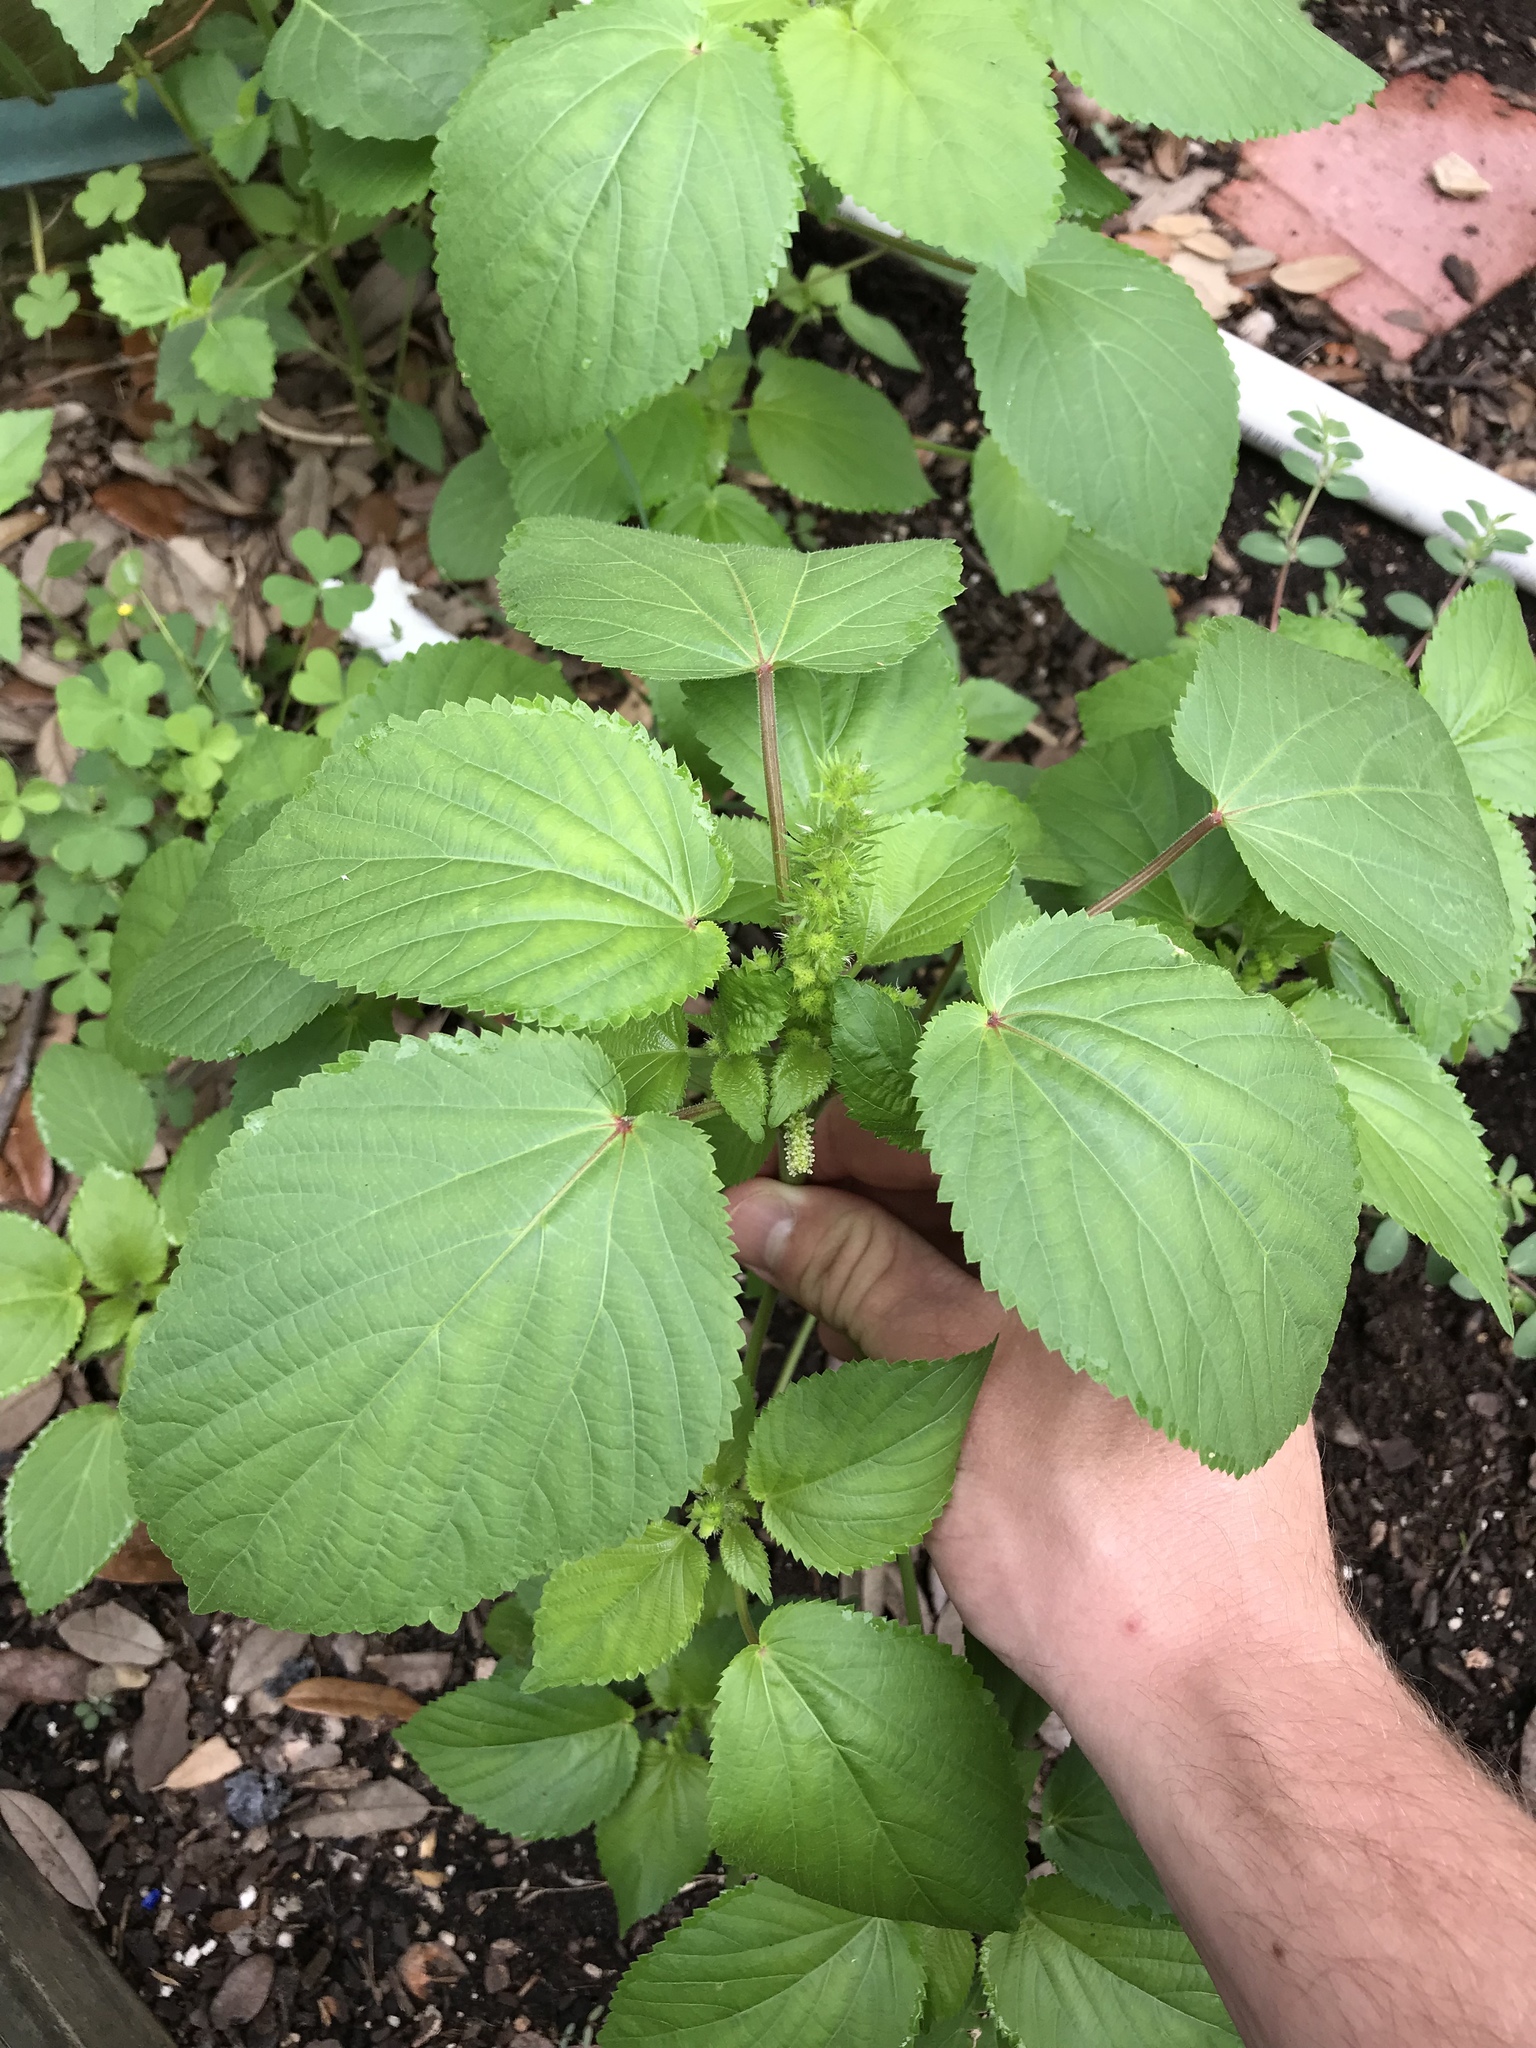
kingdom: Plantae
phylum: Tracheophyta
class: Magnoliopsida
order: Malpighiales
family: Euphorbiaceae
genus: Acalypha
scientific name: Acalypha ostryifolia
